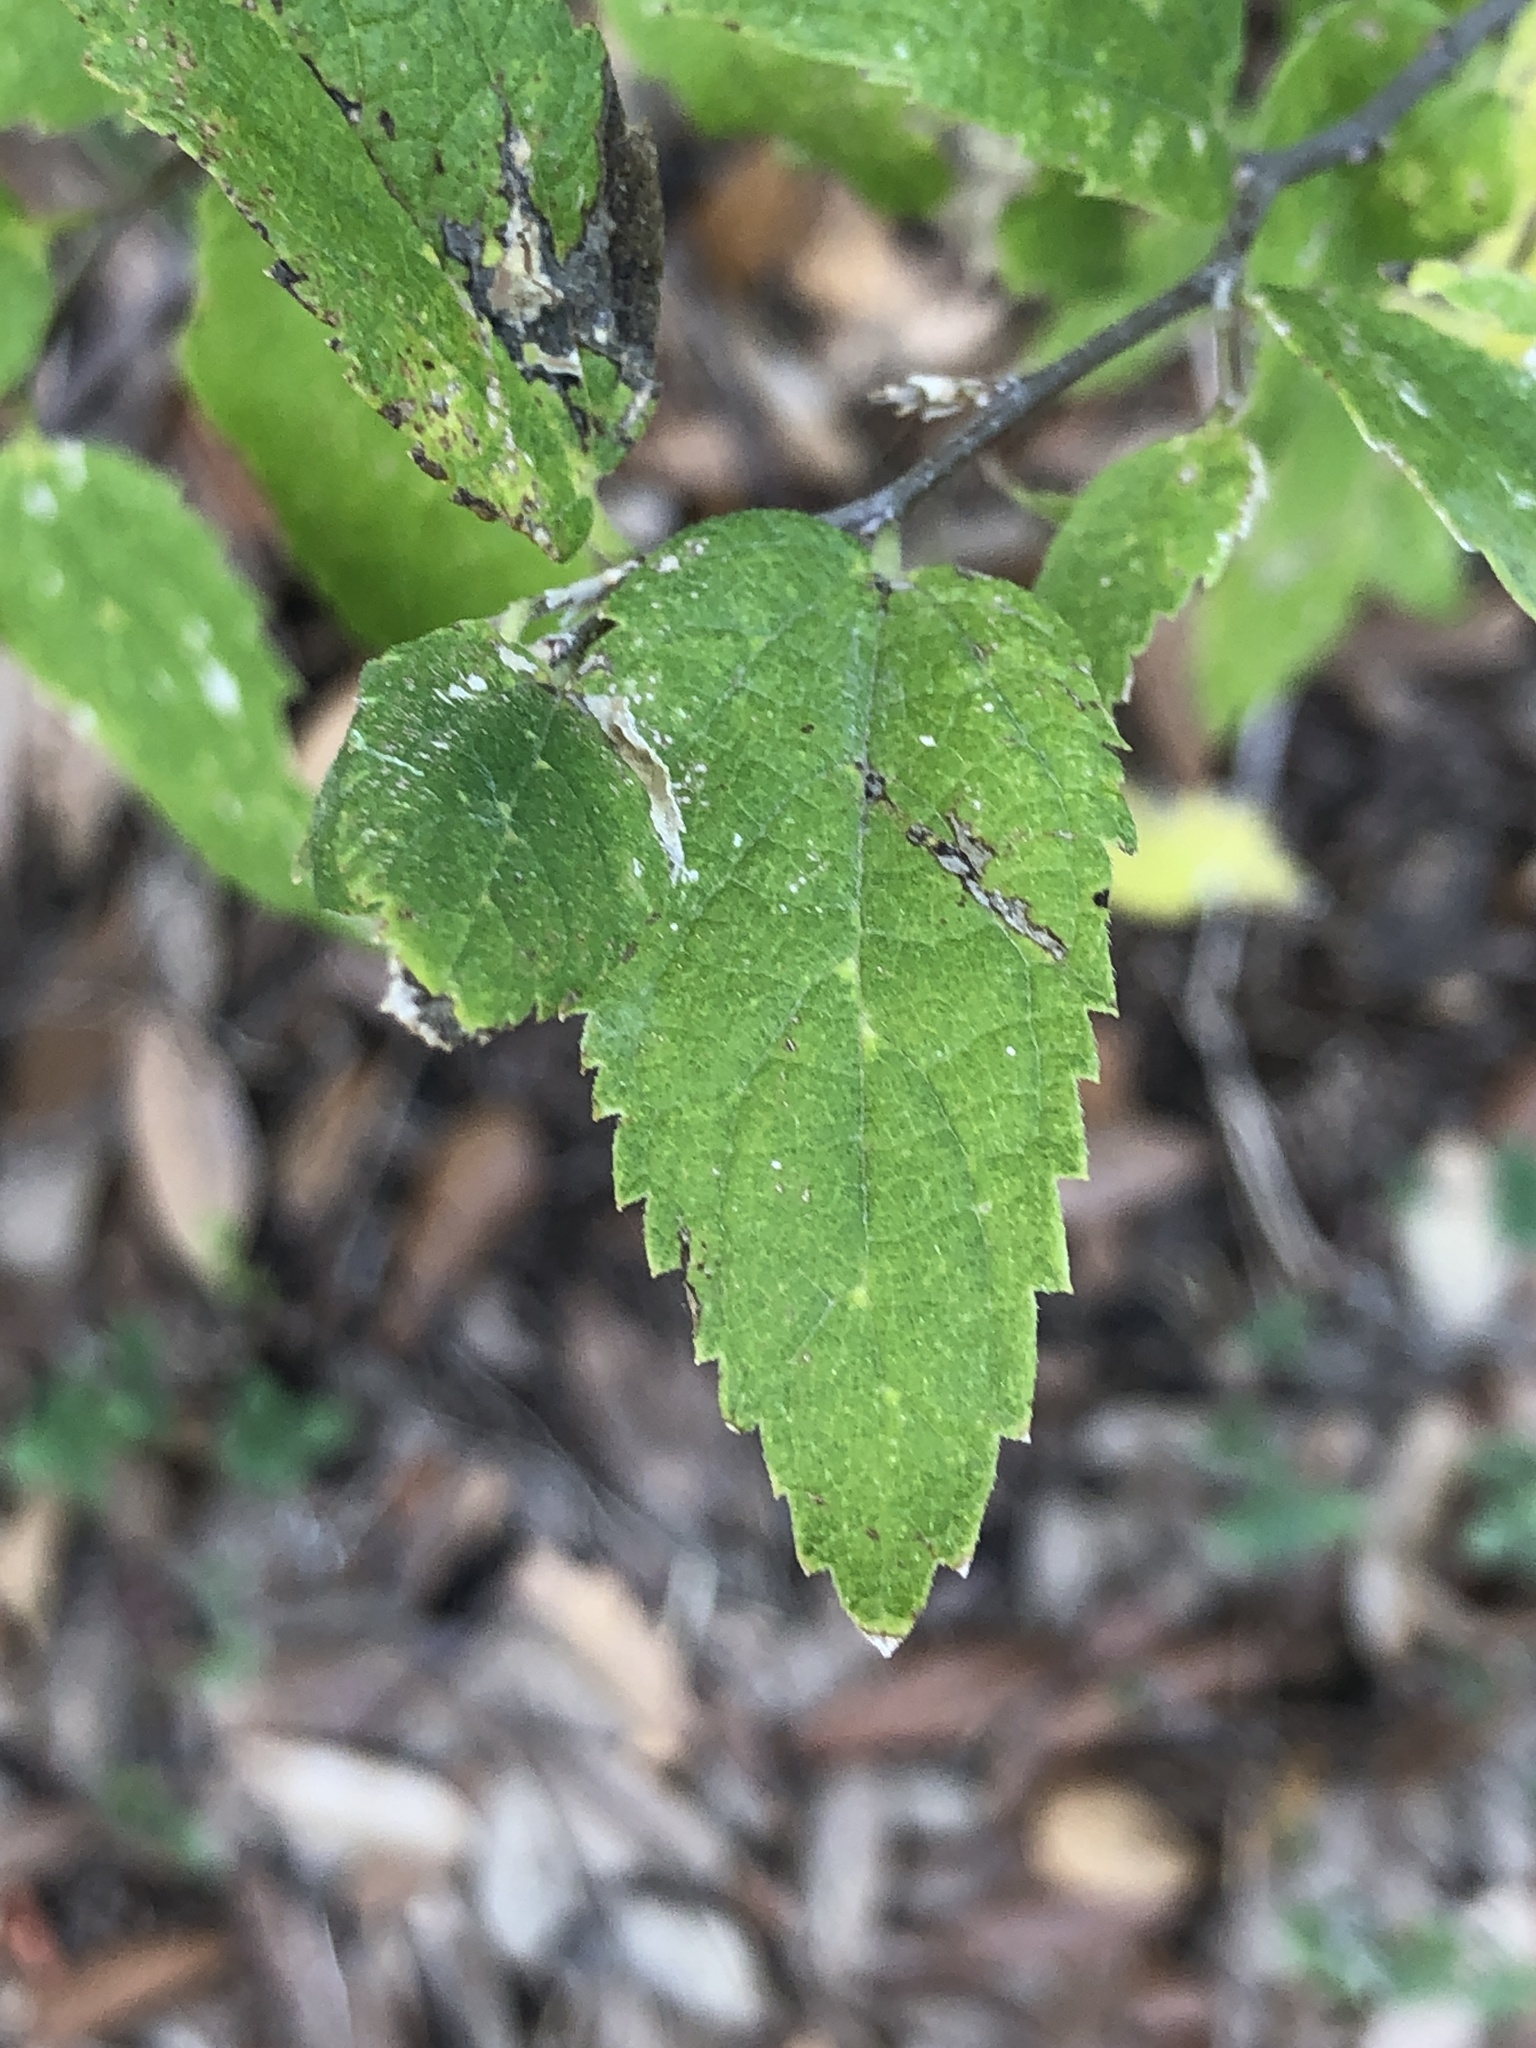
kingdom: Plantae
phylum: Tracheophyta
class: Magnoliopsida
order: Rosales
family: Cannabaceae
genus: Celtis
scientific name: Celtis laevigata
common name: Sugarberry
